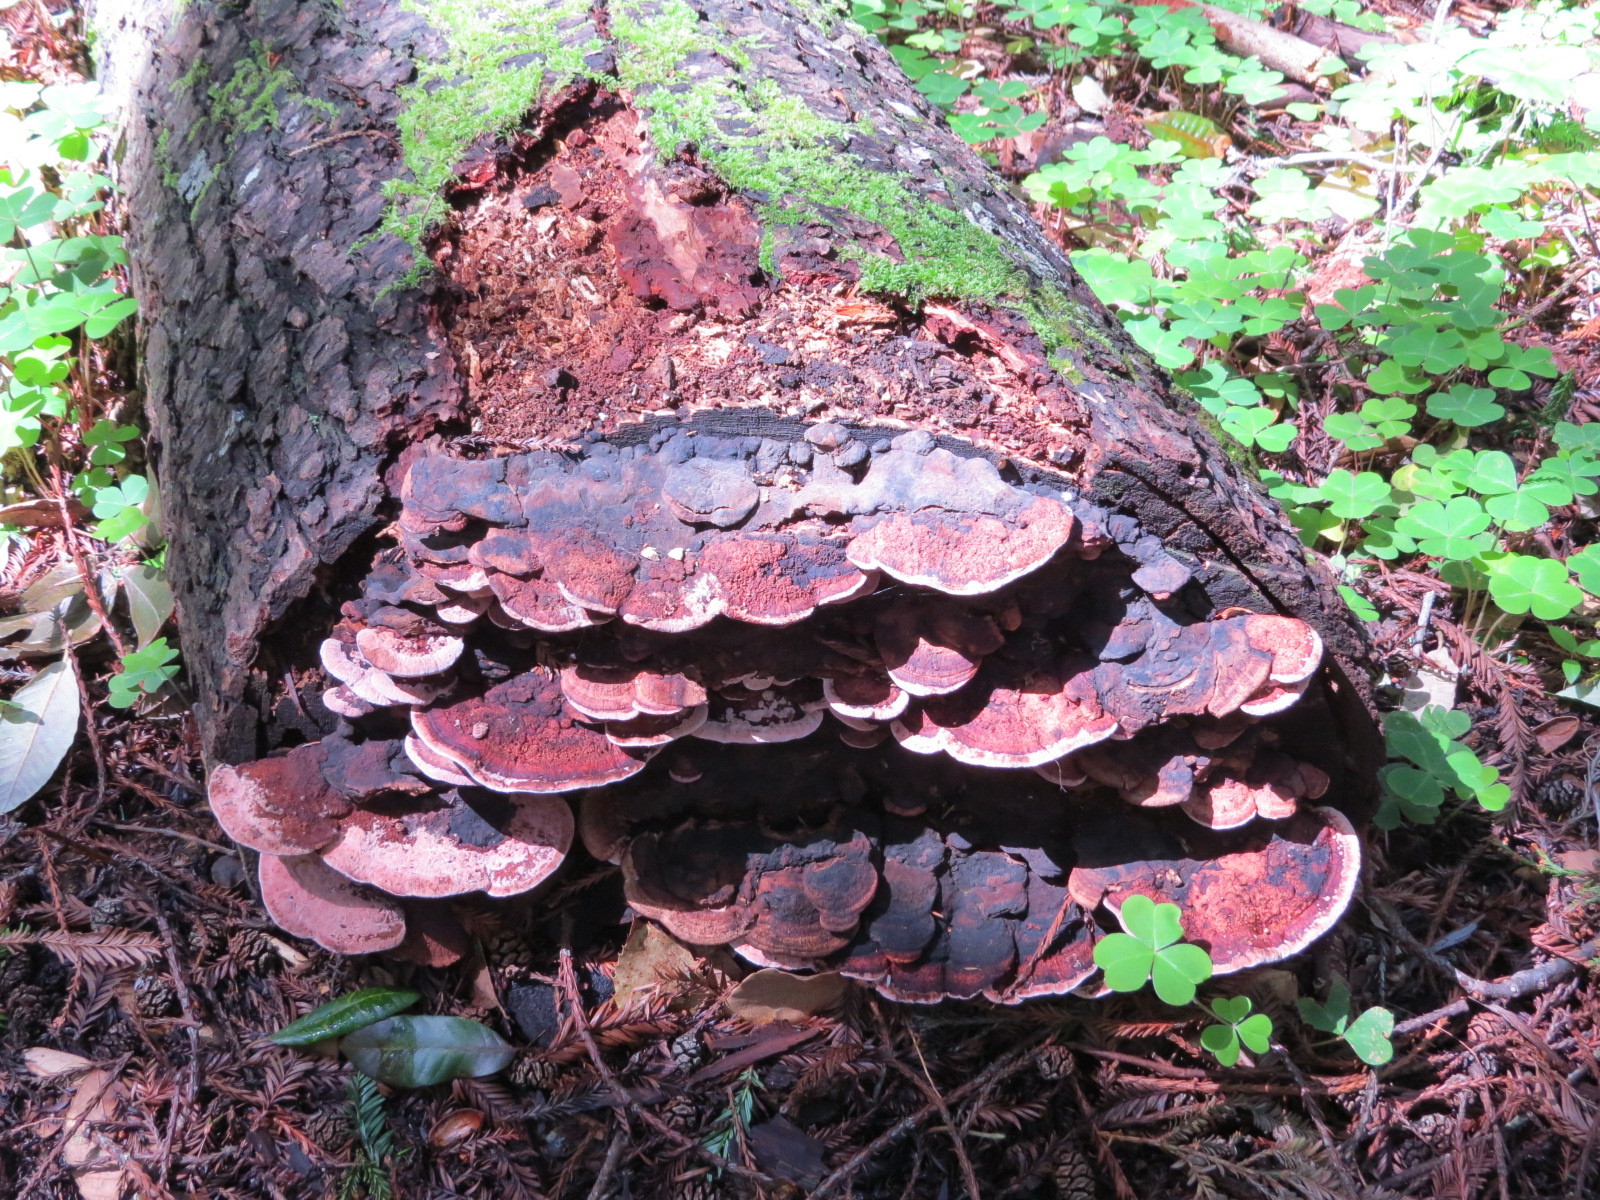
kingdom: Fungi
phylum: Basidiomycota
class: Agaricomycetes
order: Polyporales
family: Fomitopsidaceae
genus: Rhodofomes
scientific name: Rhodofomes cajanderi
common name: Rosy conk
